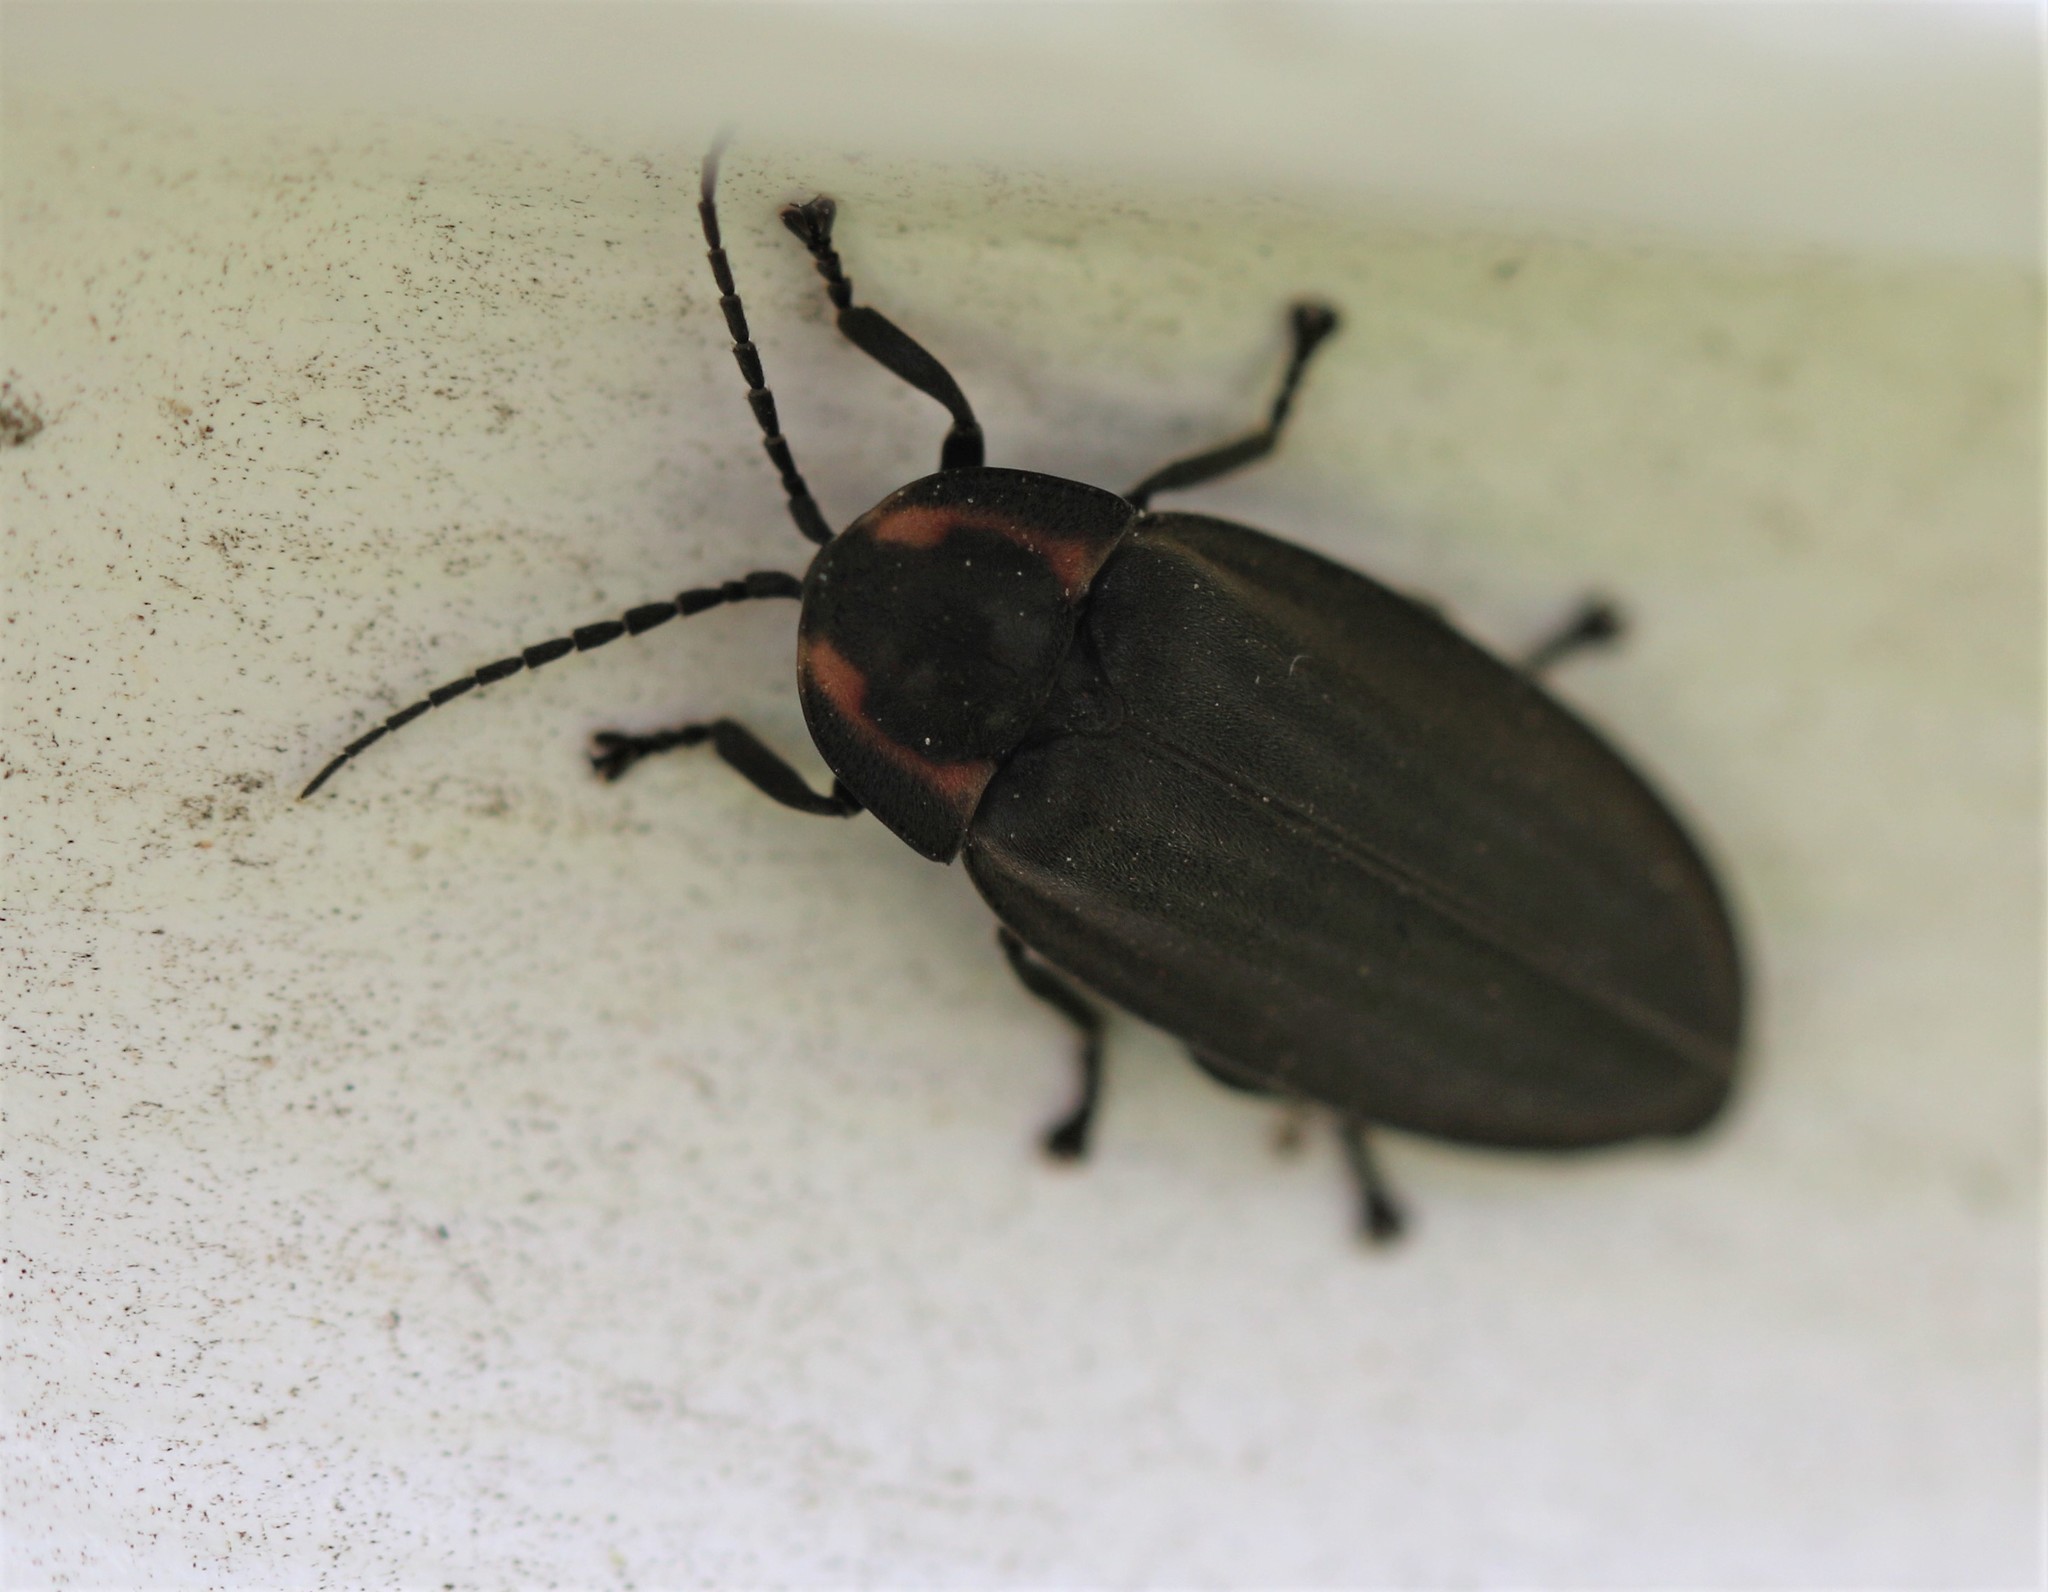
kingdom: Animalia
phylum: Arthropoda
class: Insecta
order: Coleoptera
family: Lampyridae
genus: Photinus
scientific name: Photinus corrusca
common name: Winter firefly
